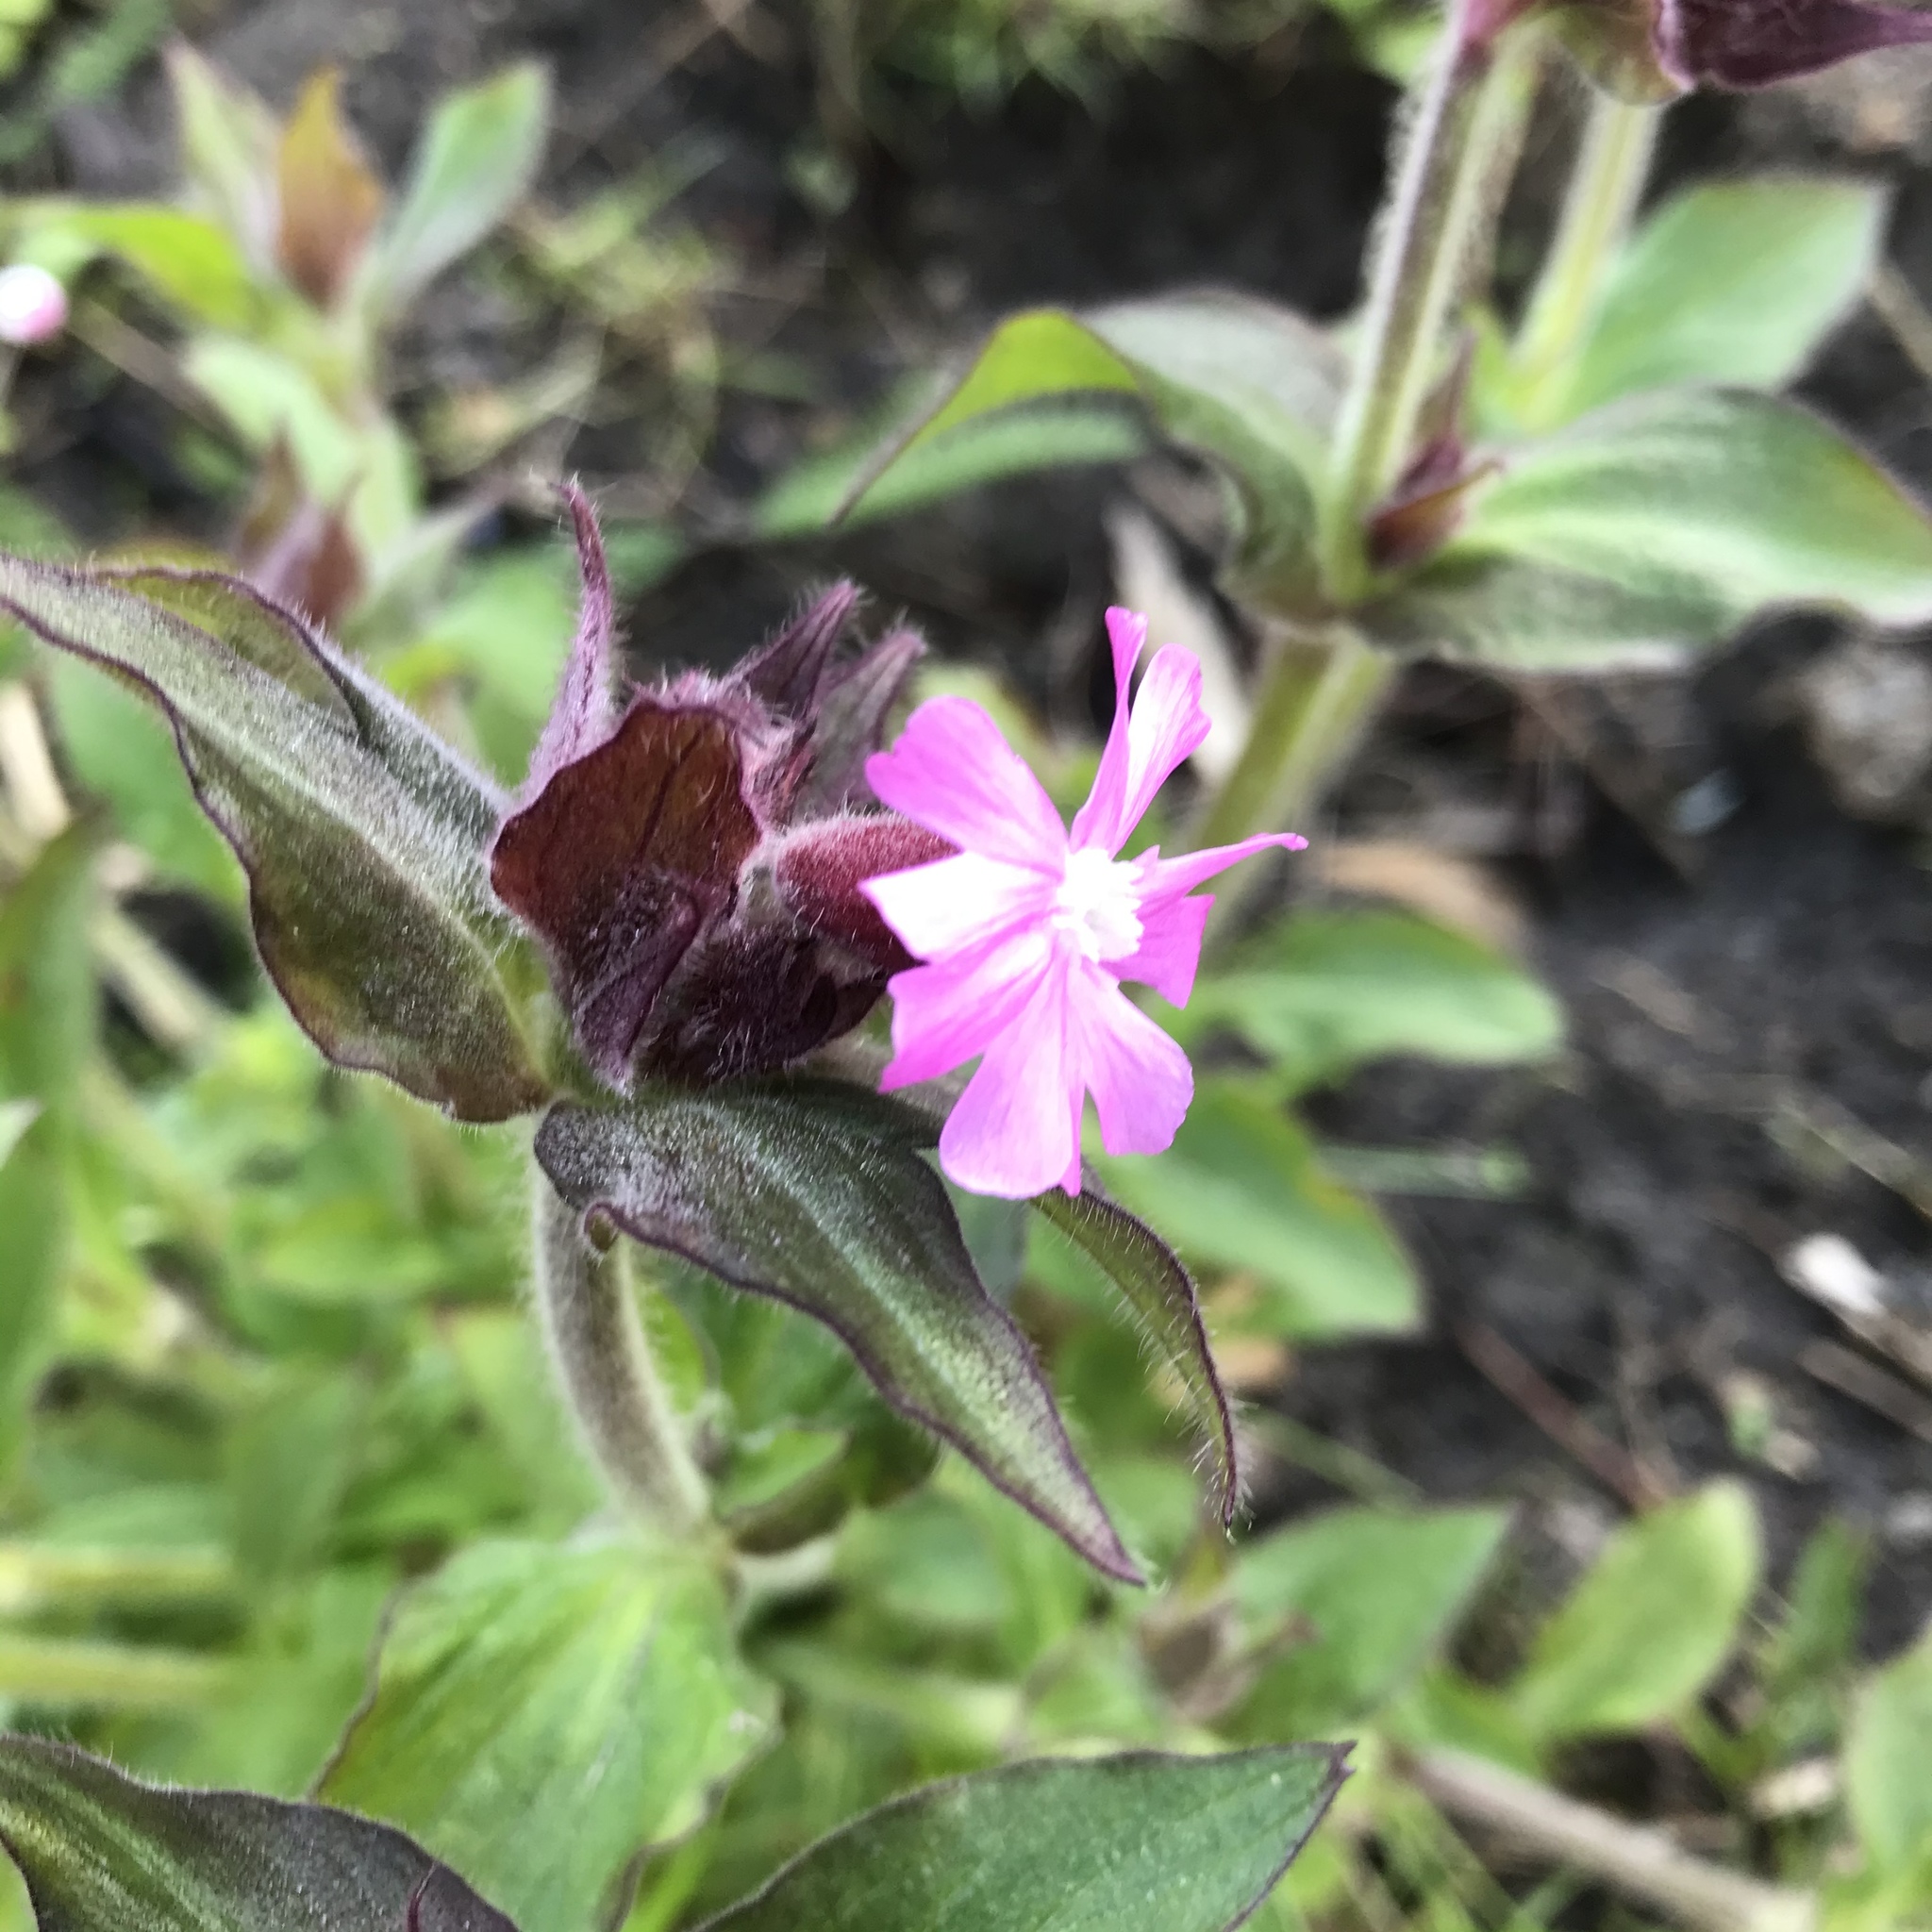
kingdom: Plantae
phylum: Tracheophyta
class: Magnoliopsida
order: Caryophyllales
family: Caryophyllaceae
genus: Silene
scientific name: Silene dioica
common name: Red campion
